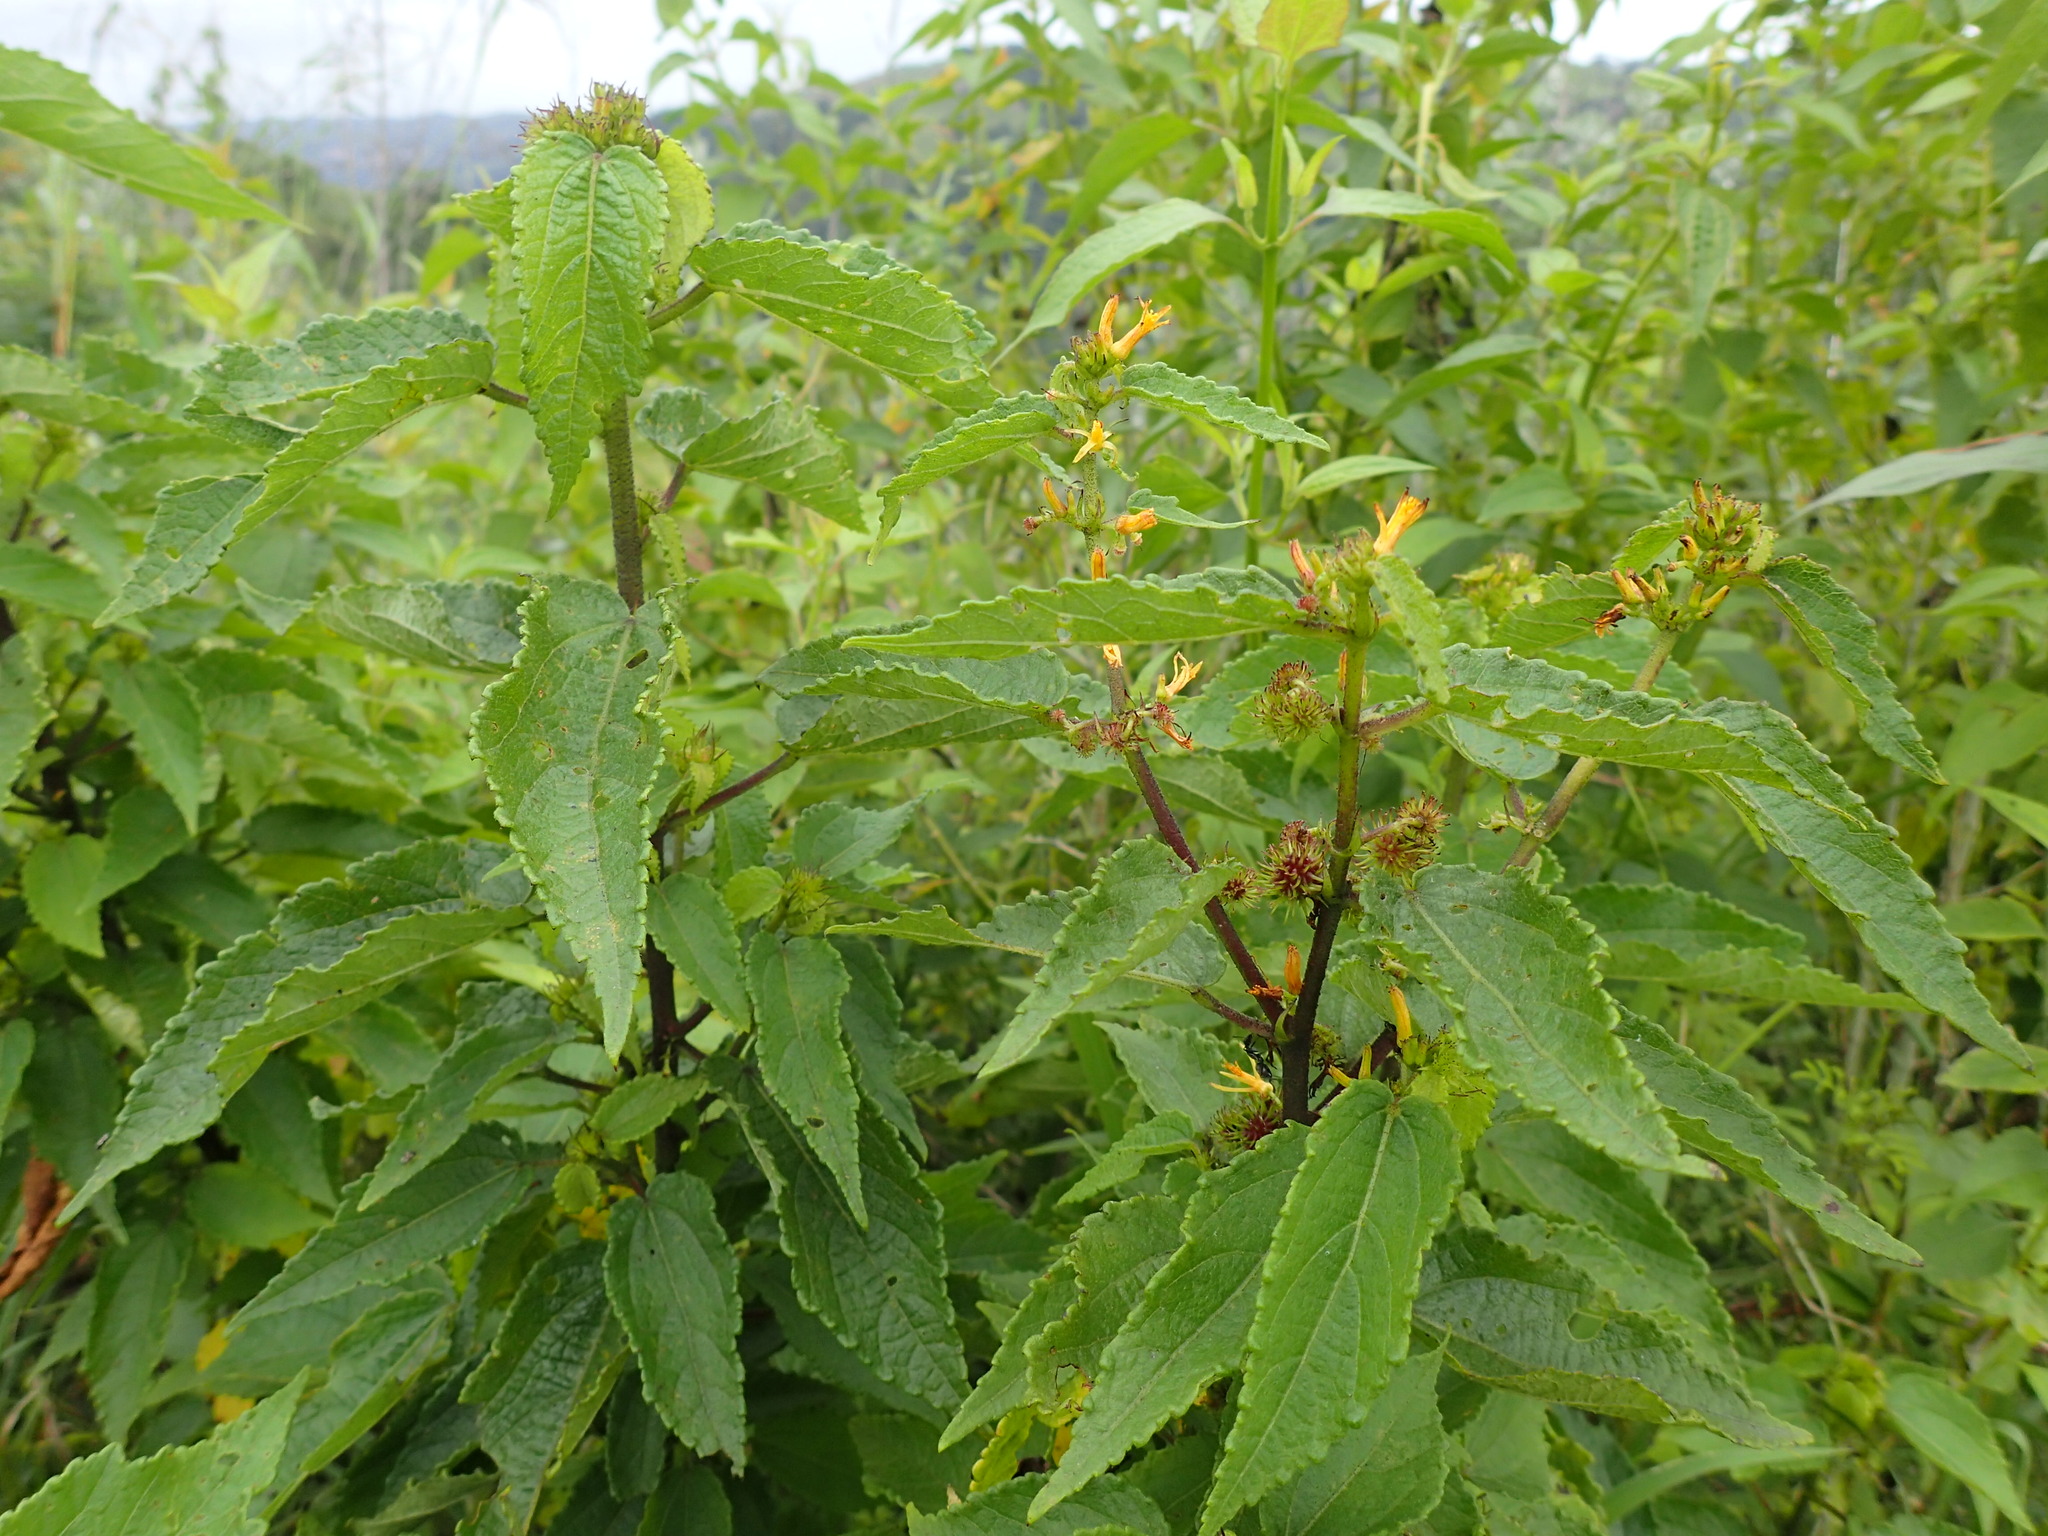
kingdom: Plantae
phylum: Tracheophyta
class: Magnoliopsida
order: Malvales
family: Malvaceae
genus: Triumfetta
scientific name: Triumfetta pilosa
